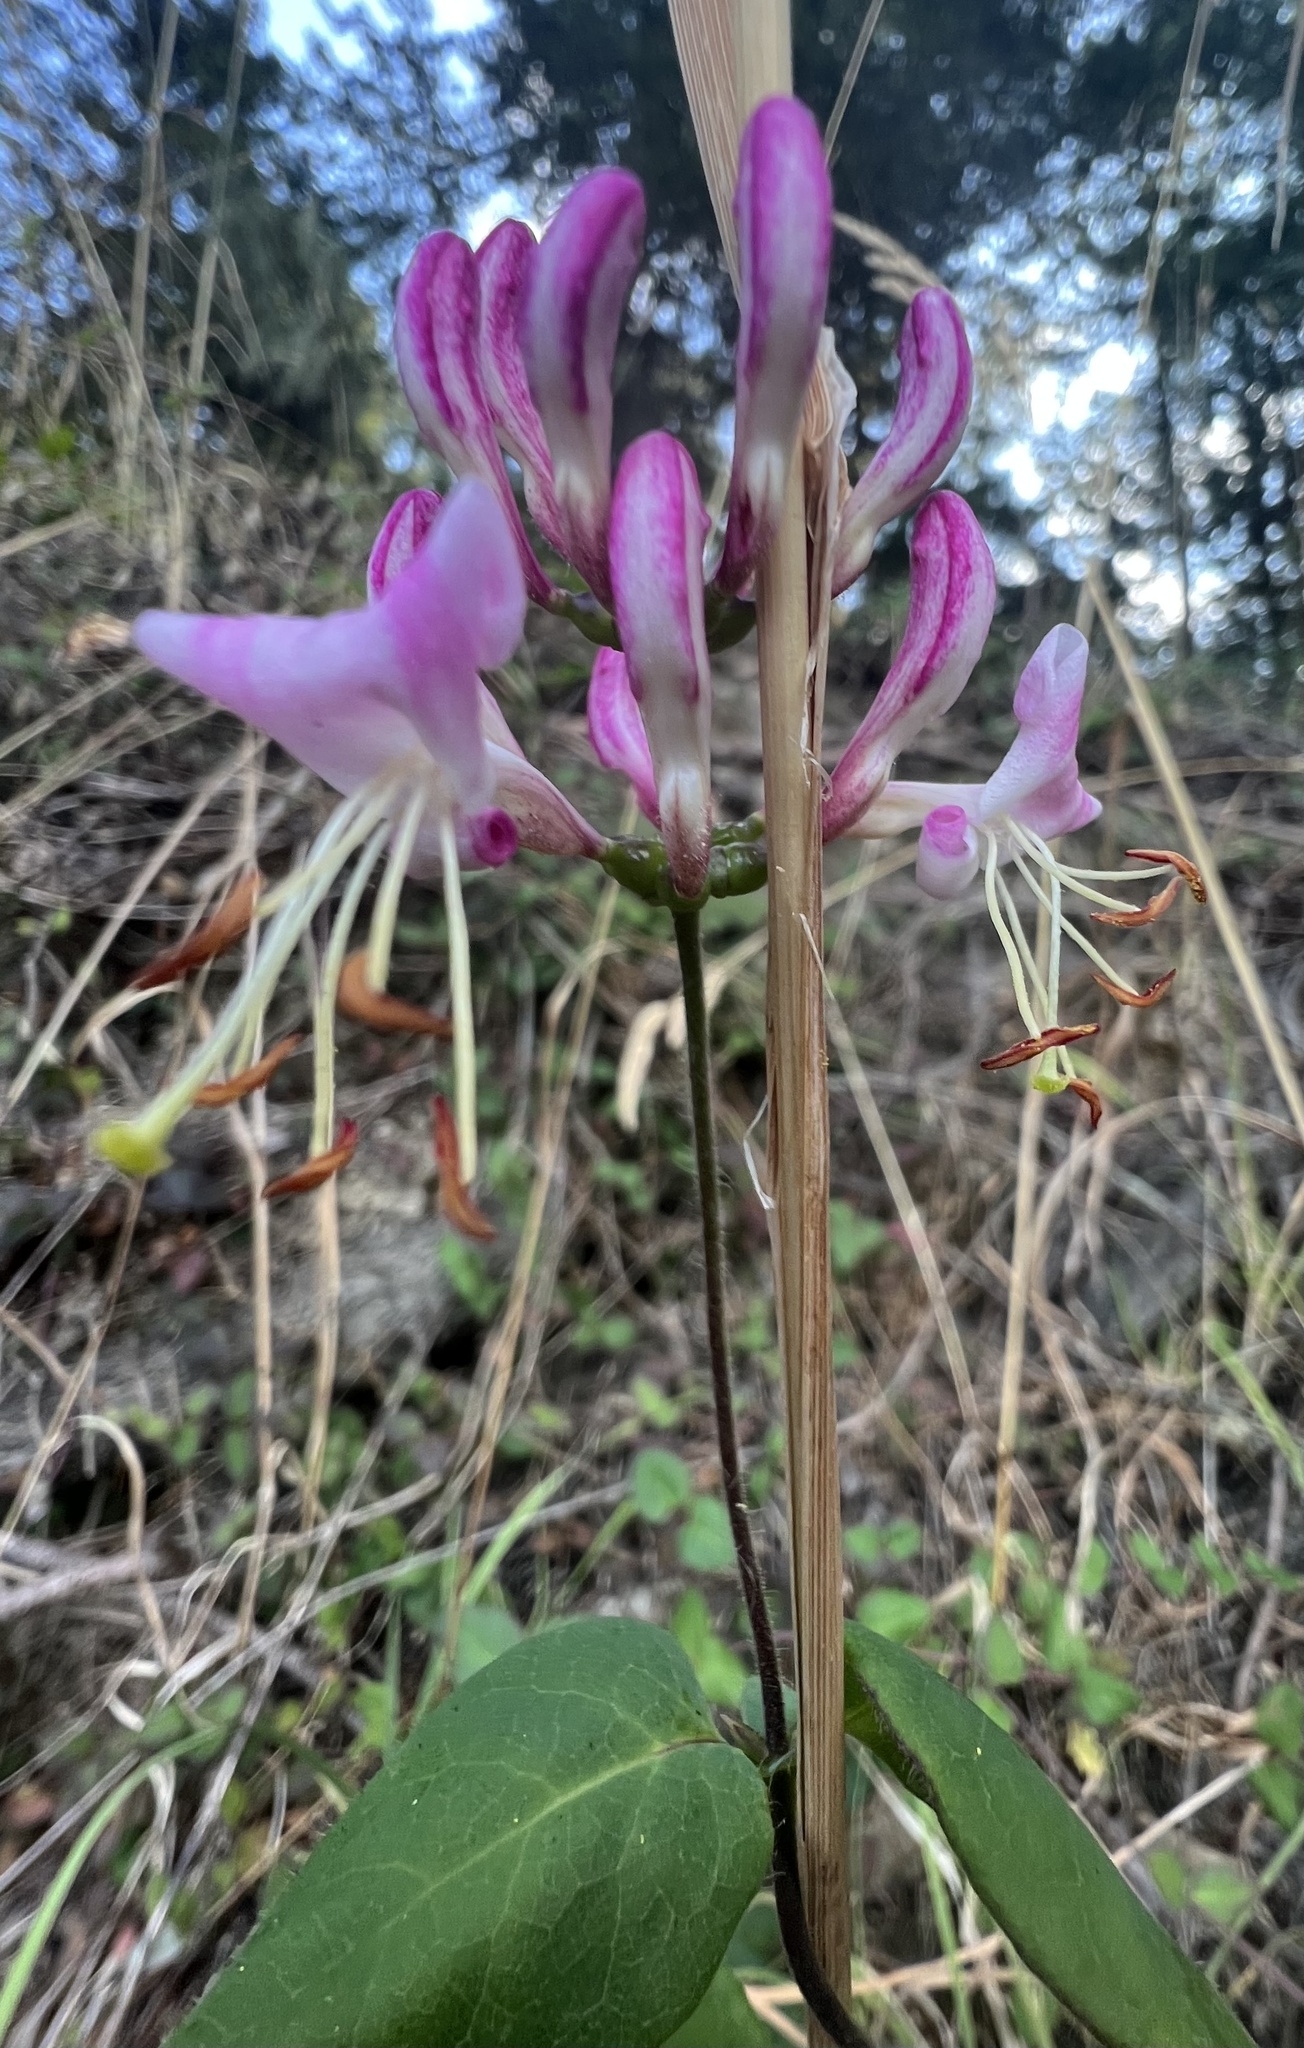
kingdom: Plantae
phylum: Tracheophyta
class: Magnoliopsida
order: Dipsacales
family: Caprifoliaceae
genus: Lonicera
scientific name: Lonicera hispidula
